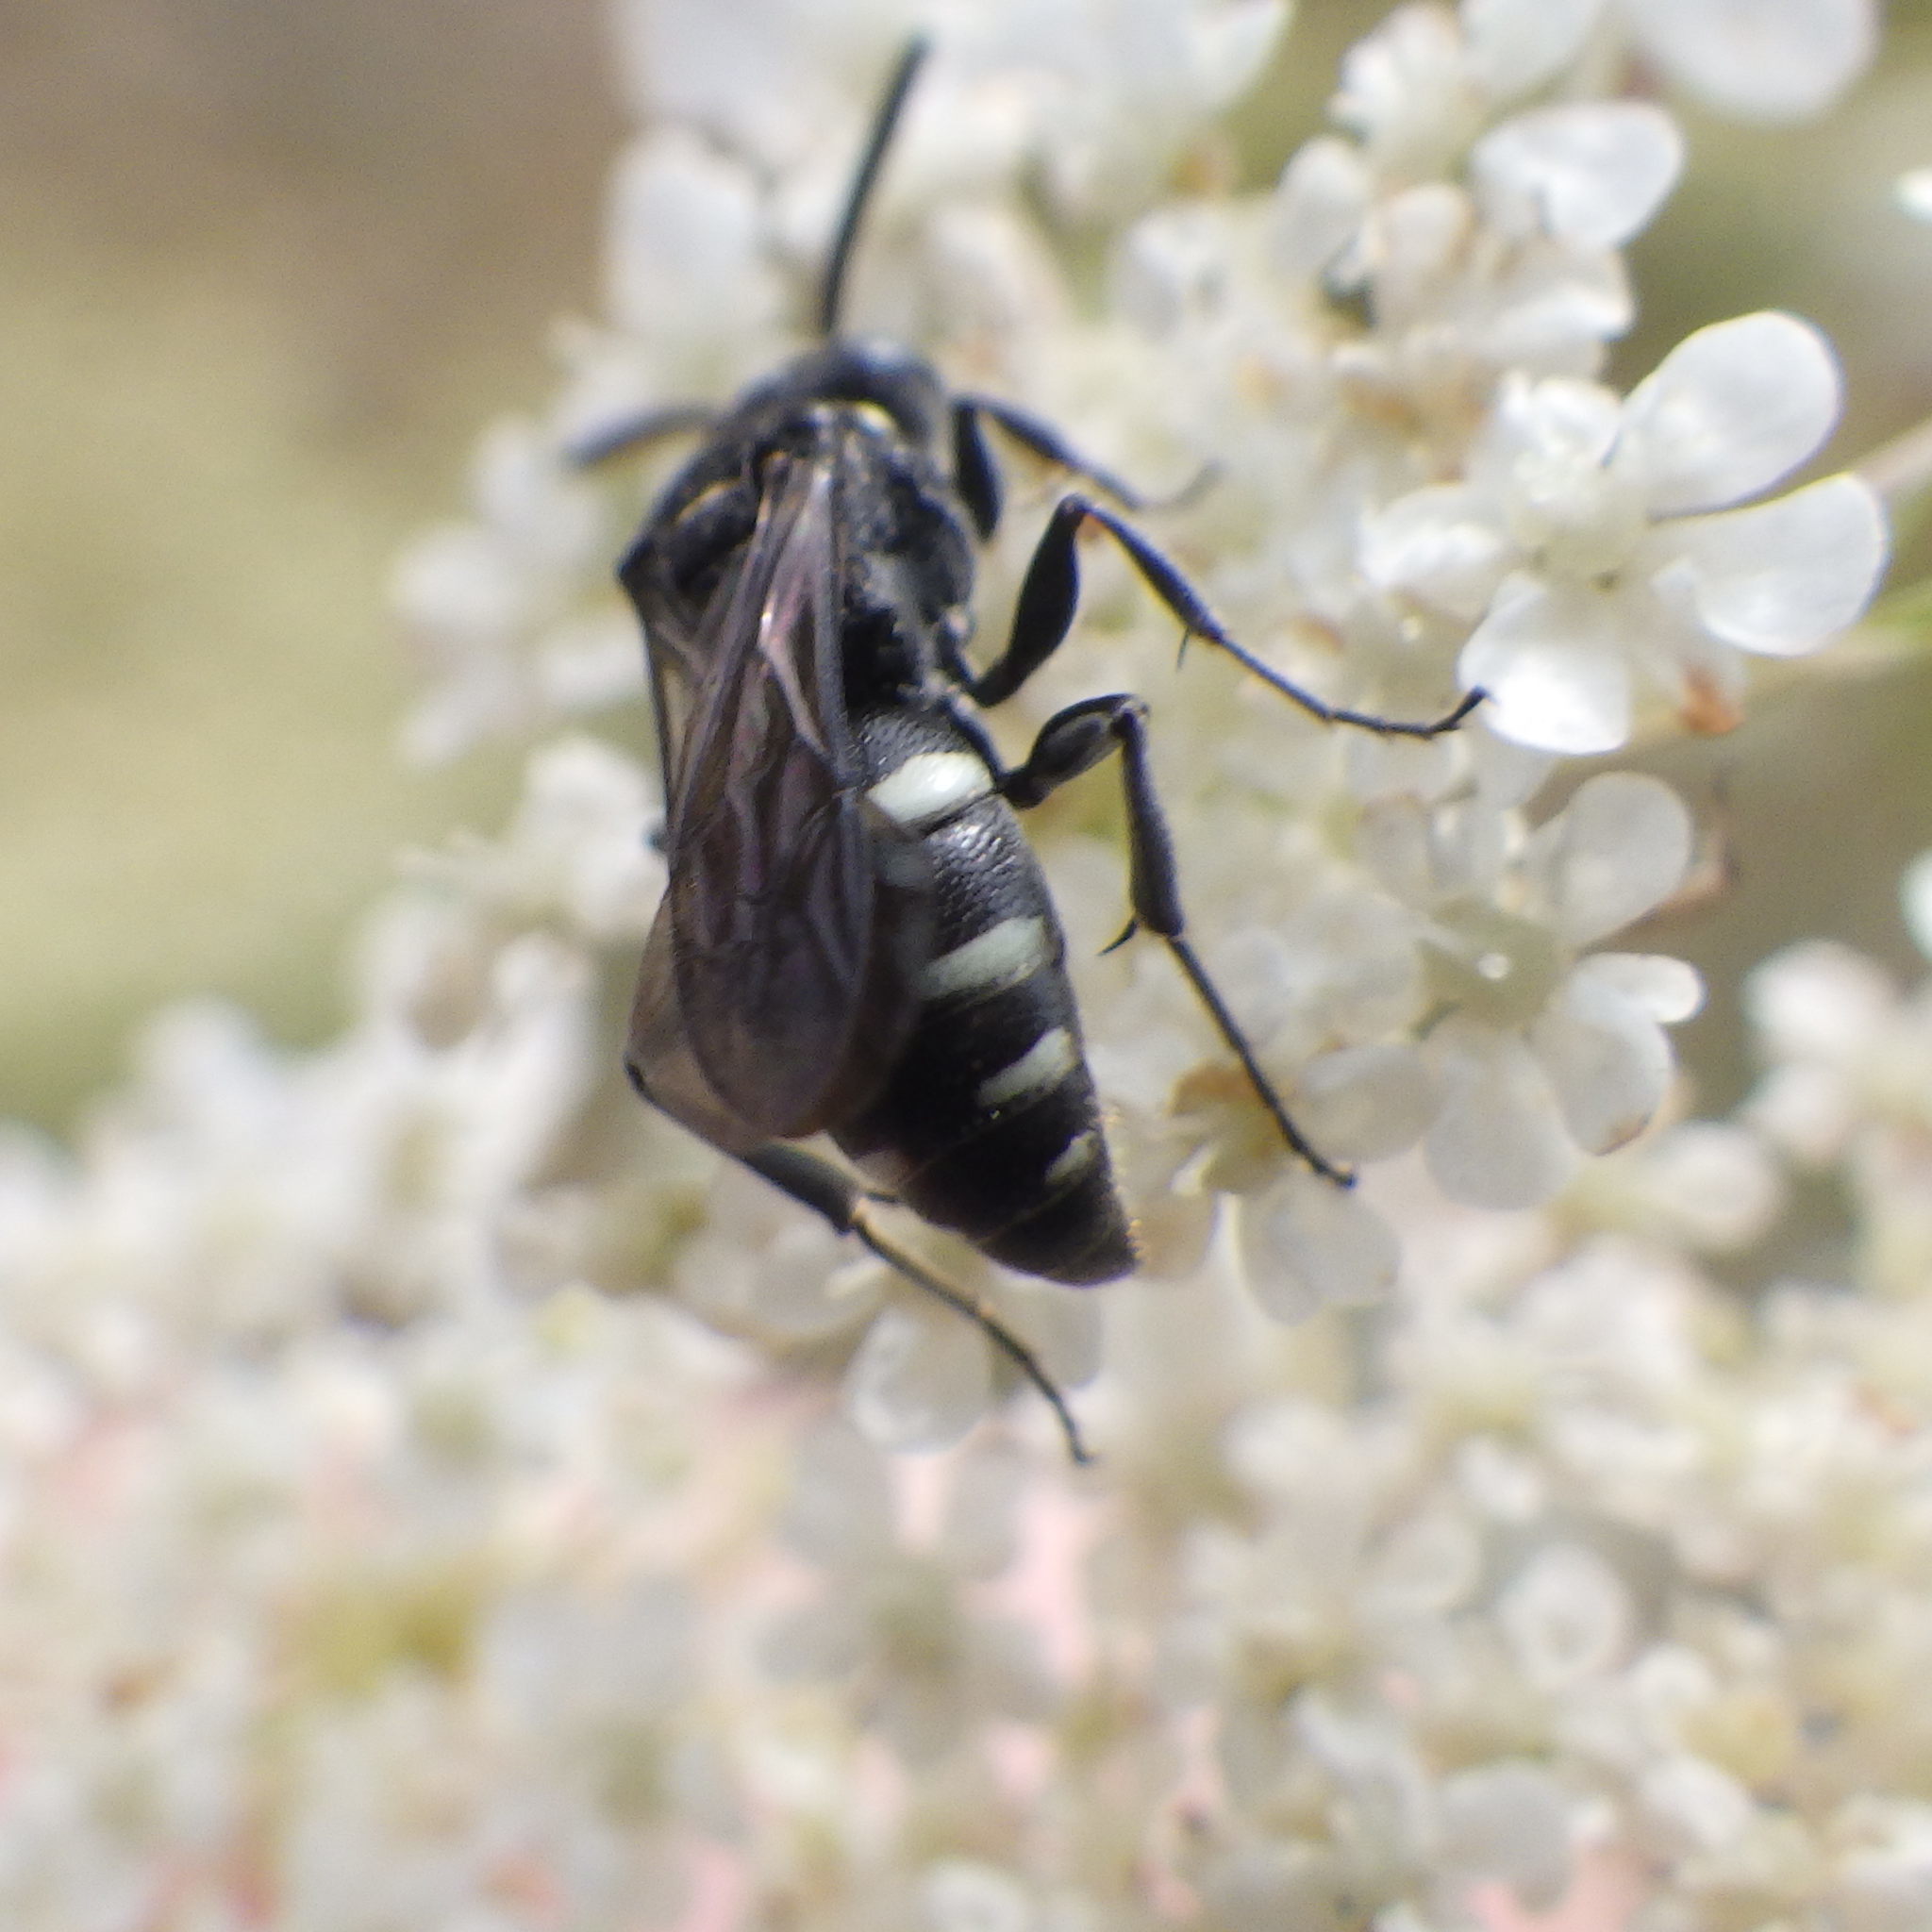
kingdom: Animalia
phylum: Arthropoda
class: Insecta
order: Hymenoptera
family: Crabronidae
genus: Nysson
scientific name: Nysson lateralis
